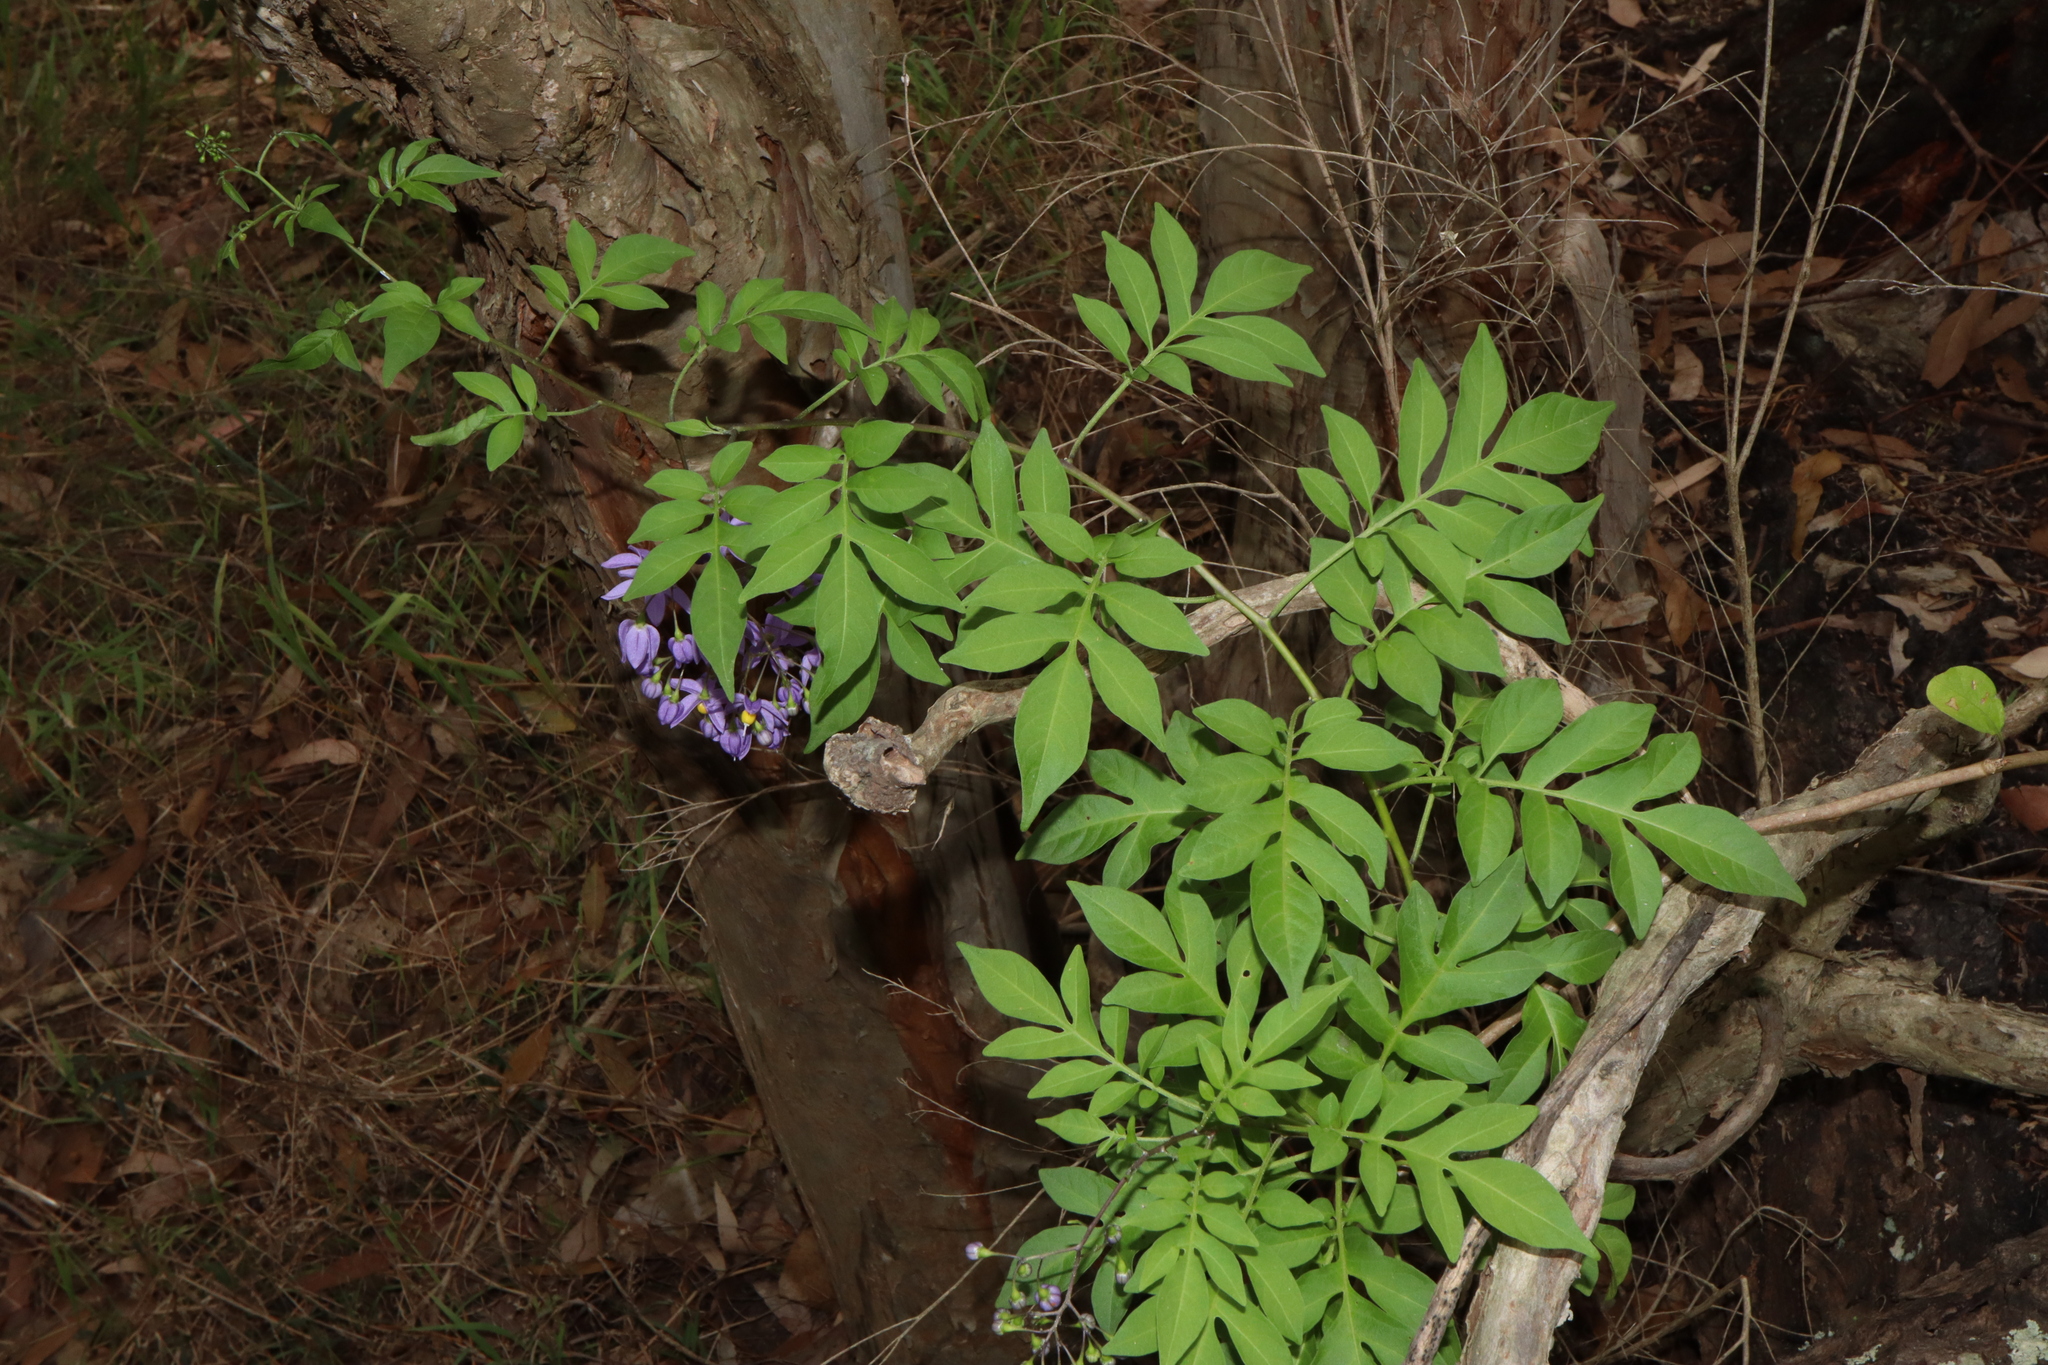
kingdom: Plantae
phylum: Tracheophyta
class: Magnoliopsida
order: Solanales
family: Solanaceae
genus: Solanum
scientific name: Solanum seaforthianum
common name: Brazilian nightshade
